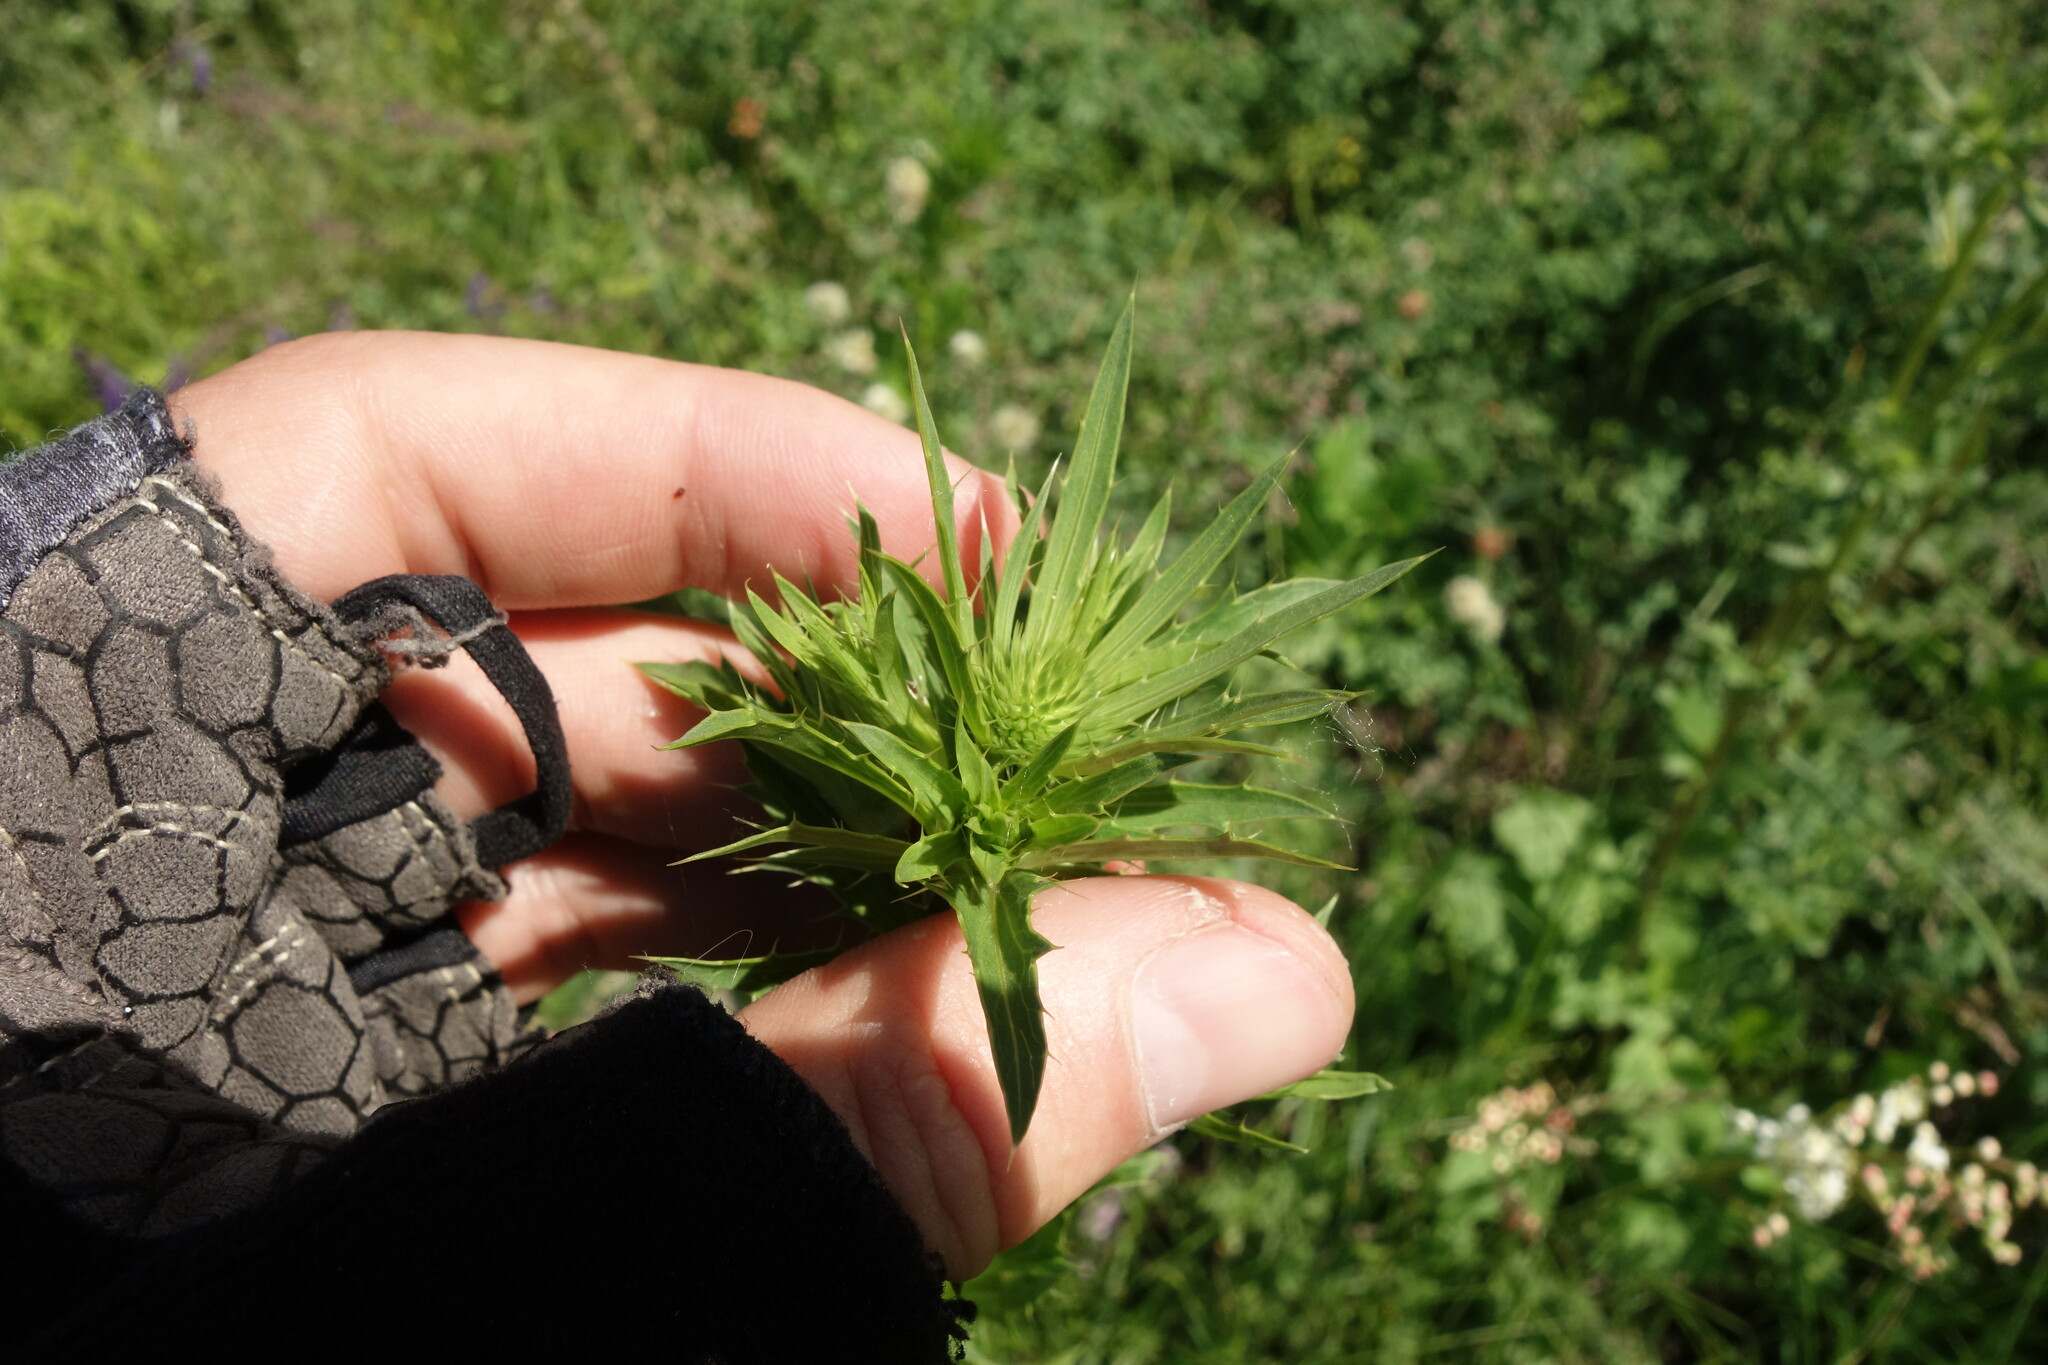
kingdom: Plantae
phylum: Tracheophyta
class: Magnoliopsida
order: Asterales
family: Asteraceae
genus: Carlina
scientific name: Carlina biebersteinii
